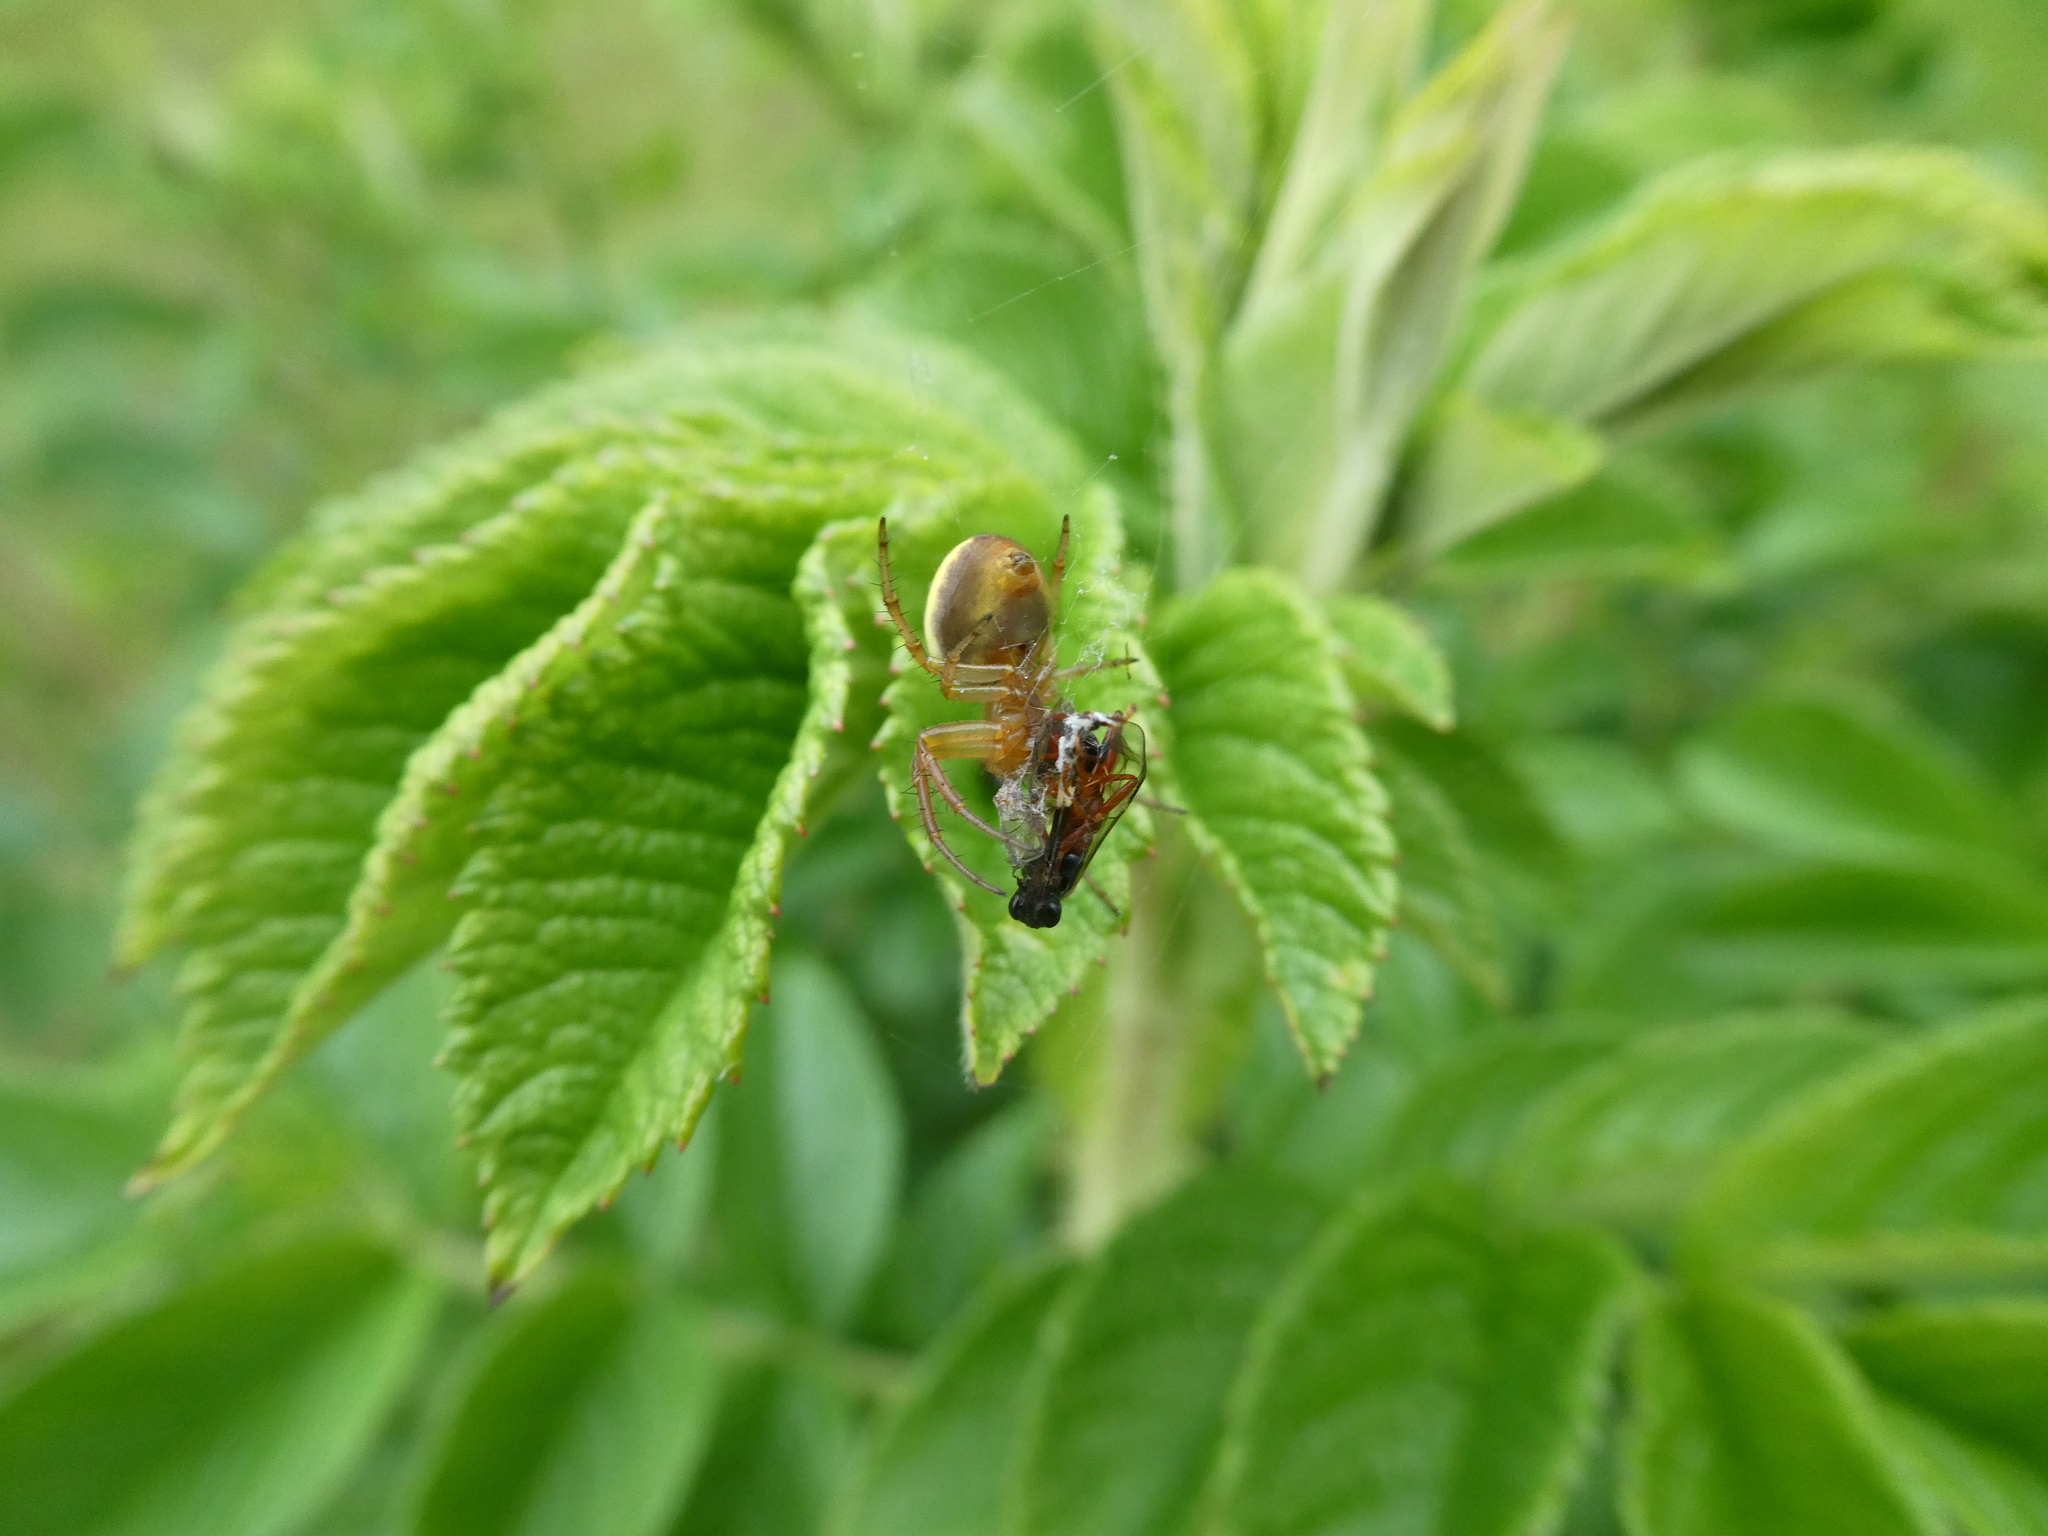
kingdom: Animalia
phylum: Arthropoda
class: Arachnida
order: Araneae
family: Araneidae
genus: Araniella
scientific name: Araniella displicata
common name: Sixspotted orb weaver
